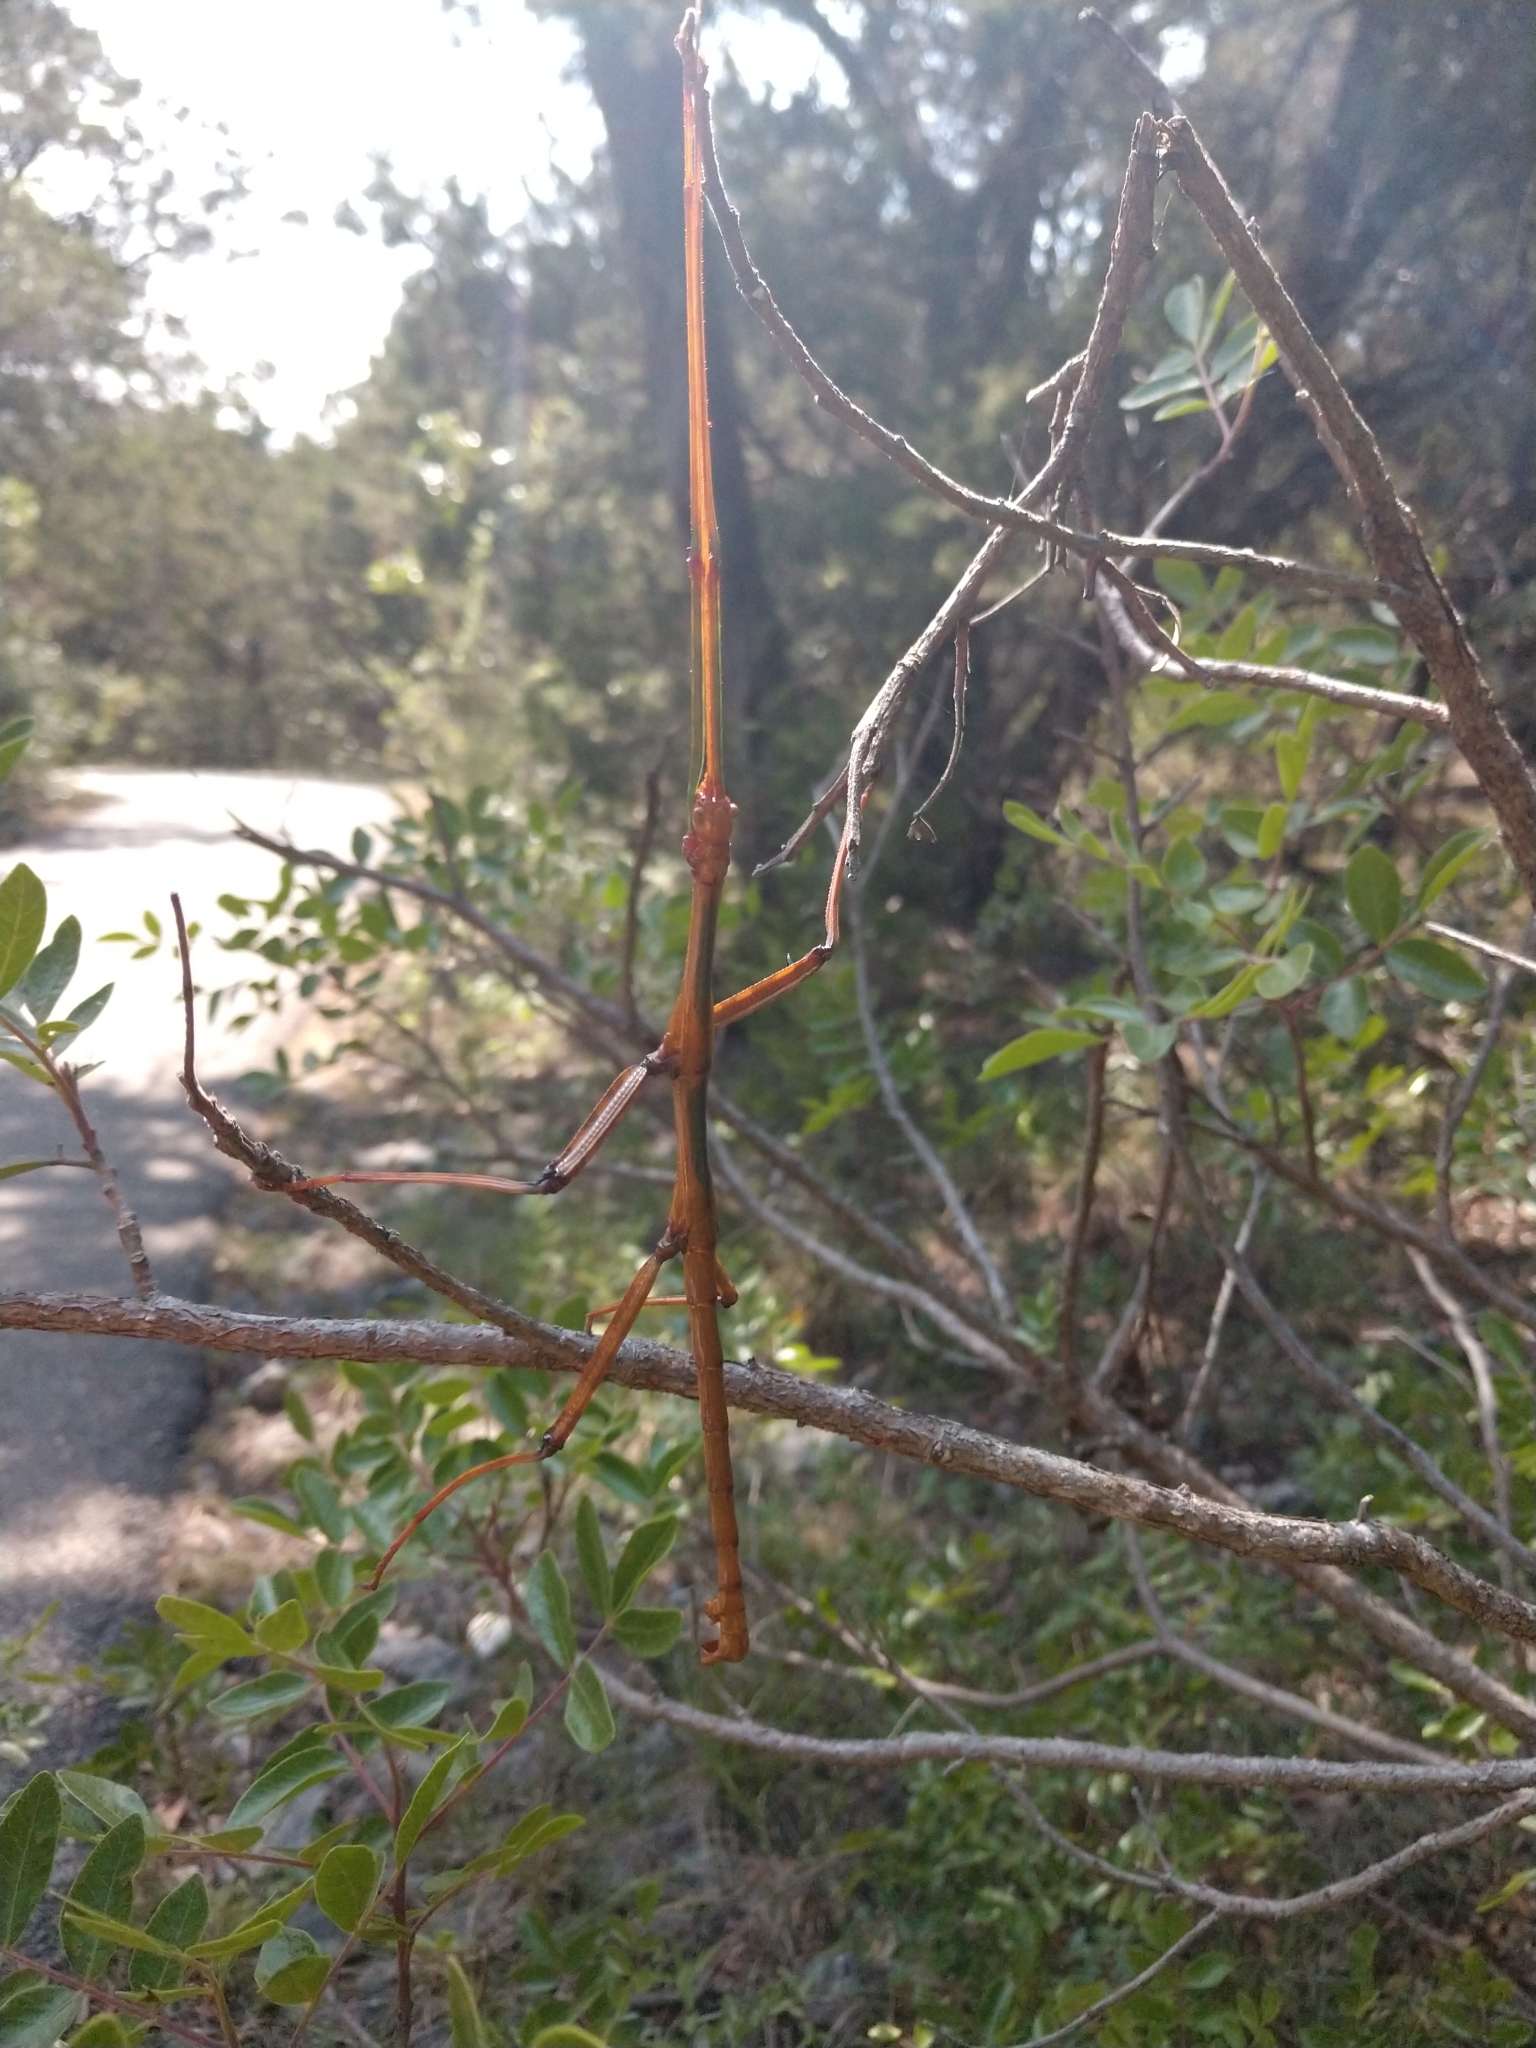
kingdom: Animalia
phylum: Arthropoda
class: Insecta
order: Phasmida
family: Diapheromeridae
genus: Megaphasma
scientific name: Megaphasma denticrus
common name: Giant walkingstick
